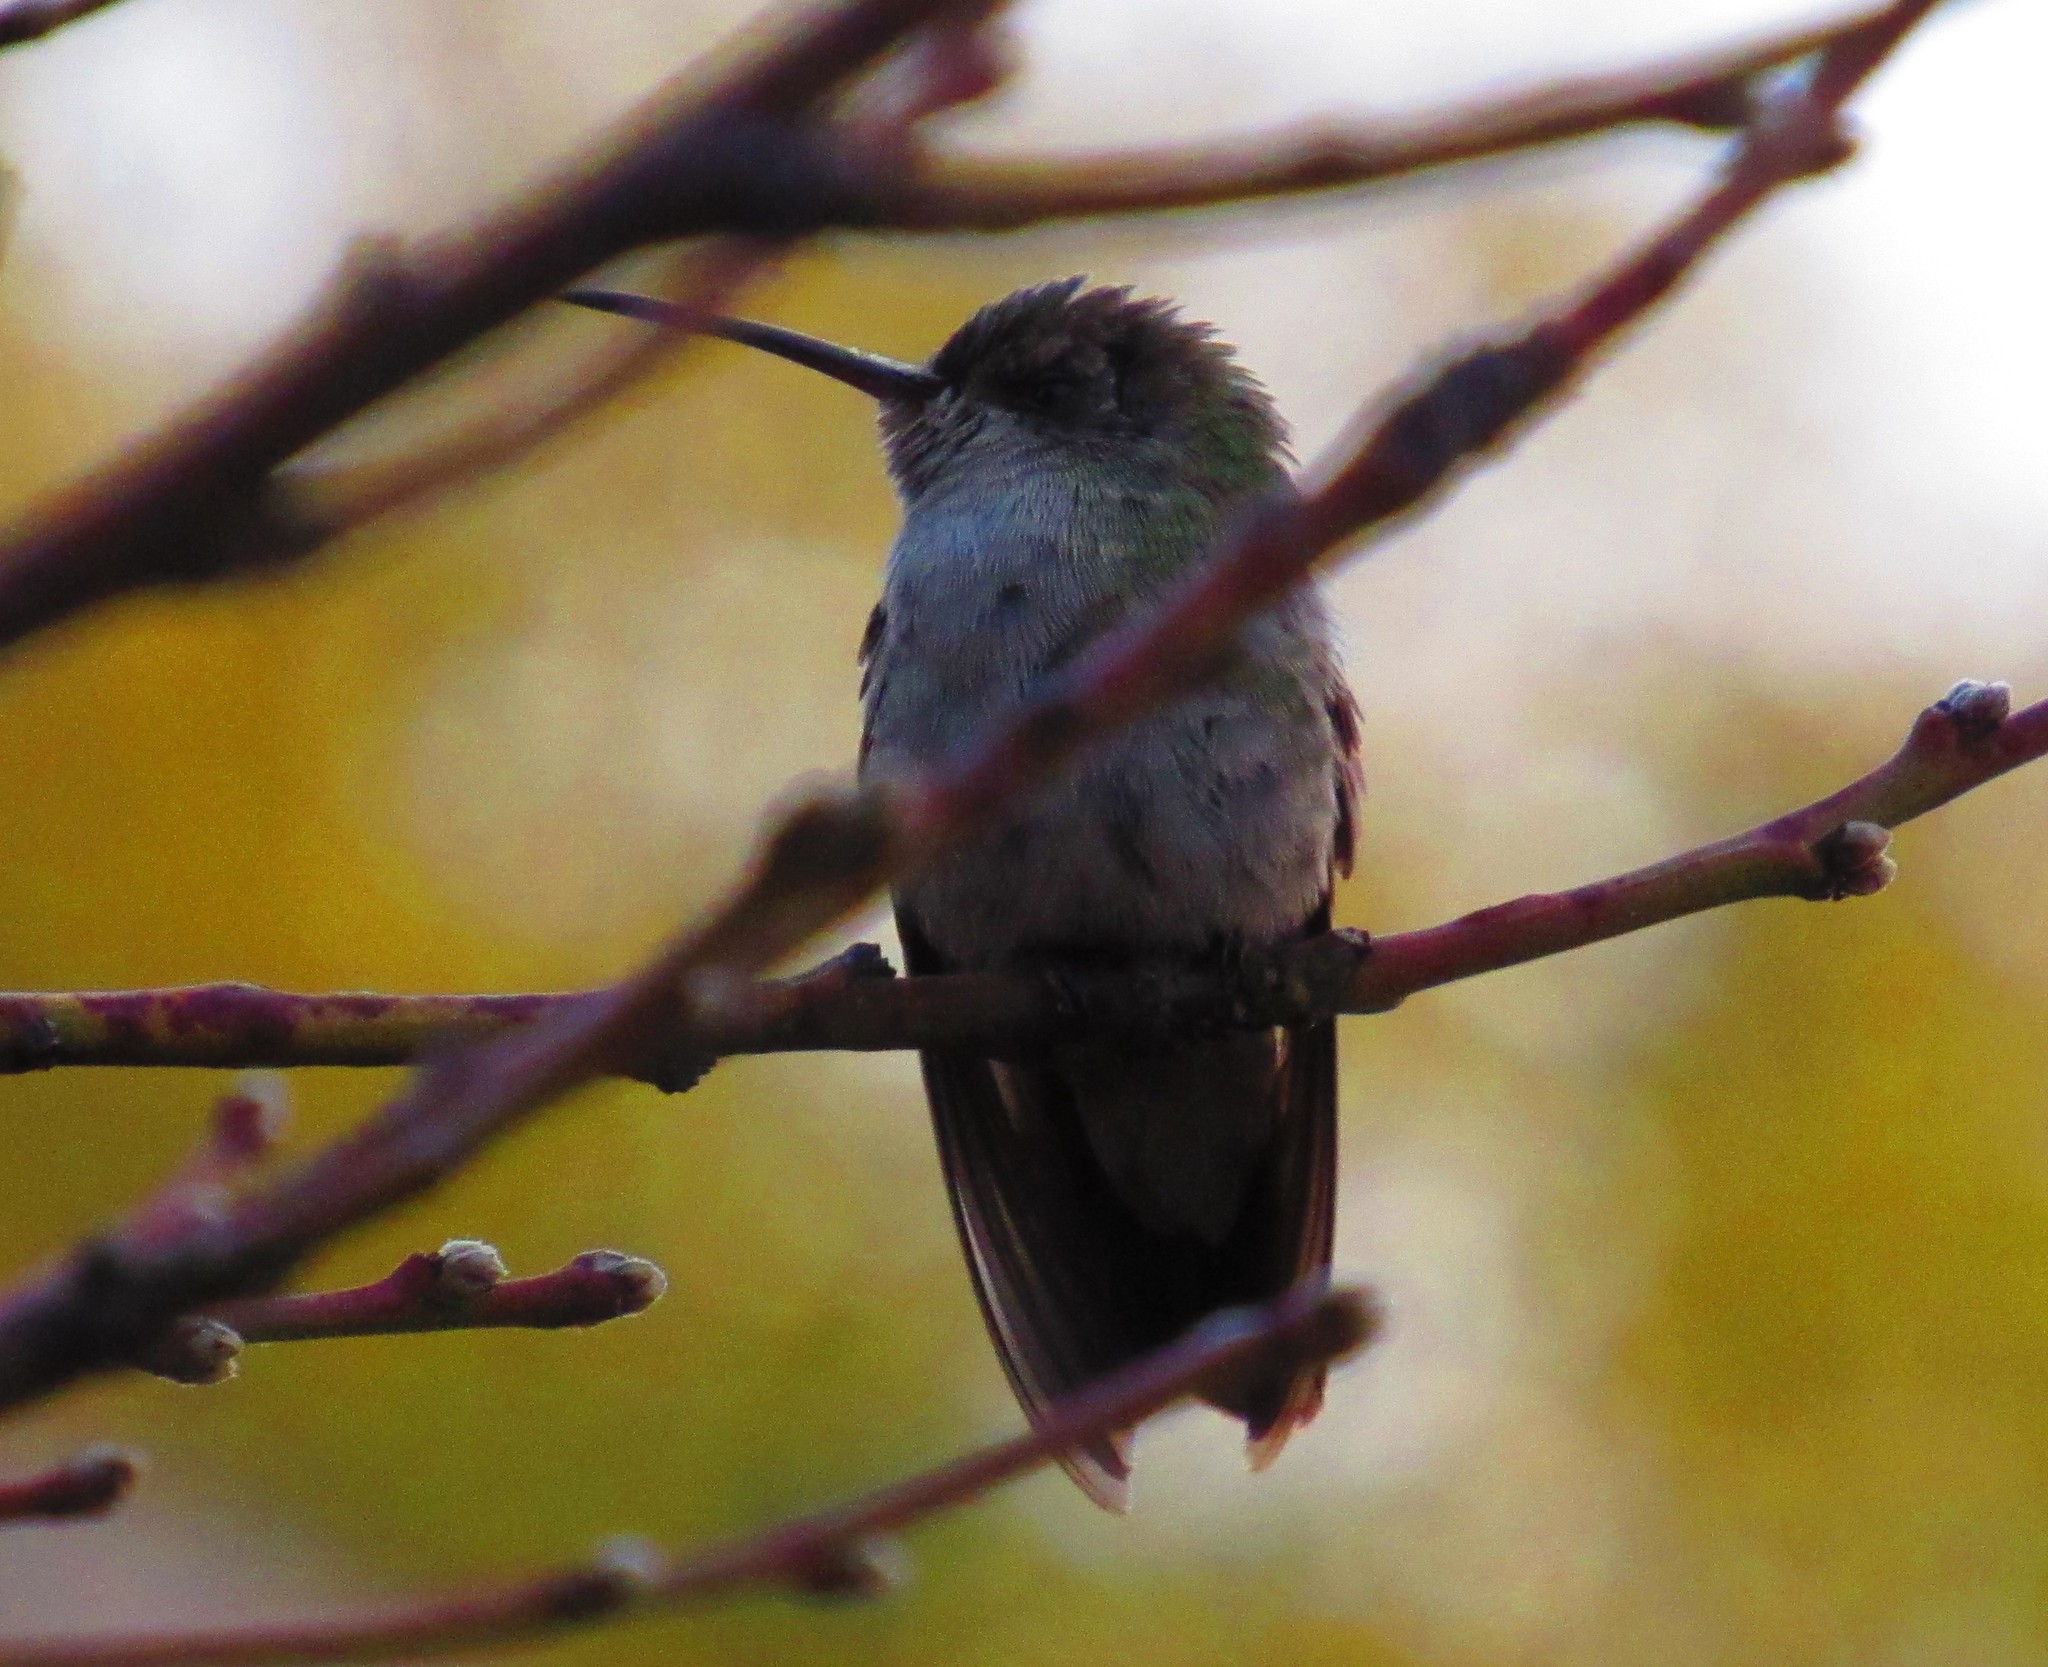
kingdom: Animalia
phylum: Chordata
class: Aves
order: Apodiformes
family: Trochilidae
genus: Cynanthus
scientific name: Cynanthus latirostris
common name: Broad-billed hummingbird
